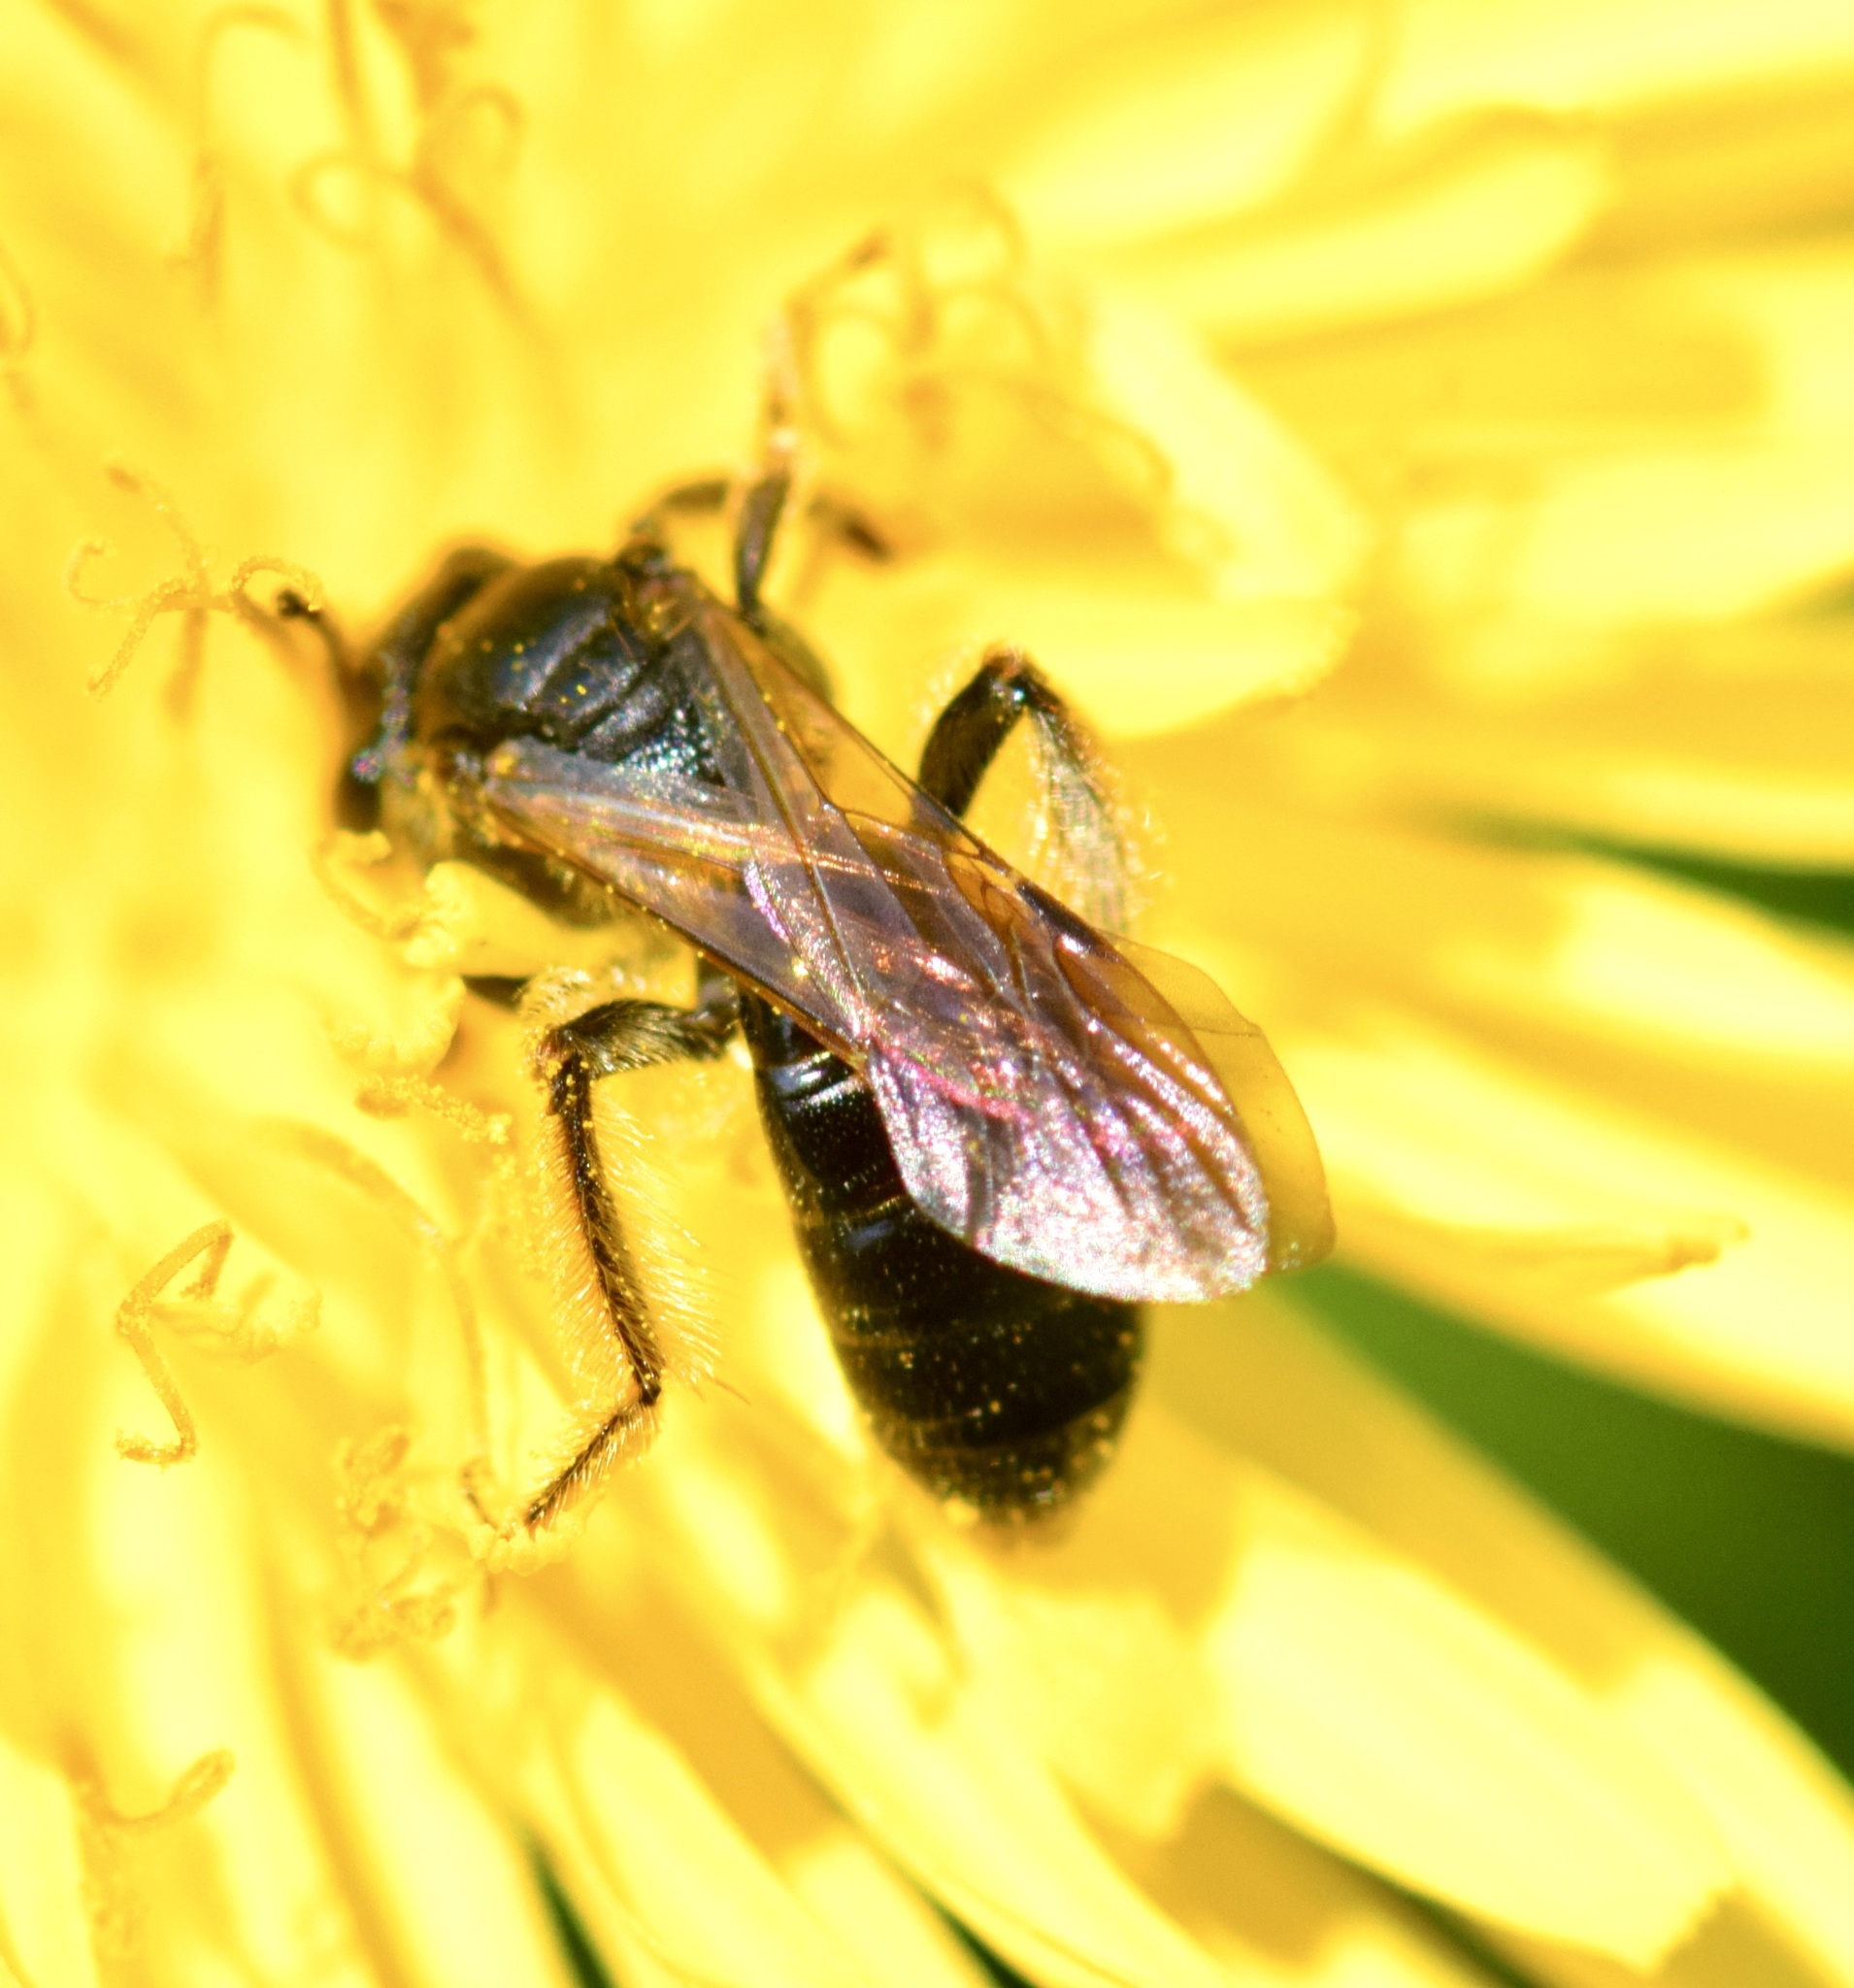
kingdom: Animalia
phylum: Arthropoda
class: Insecta
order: Hymenoptera
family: Andrenidae
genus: Andrena
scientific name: Andrena integra
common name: Short-haired dogwood mining bee
